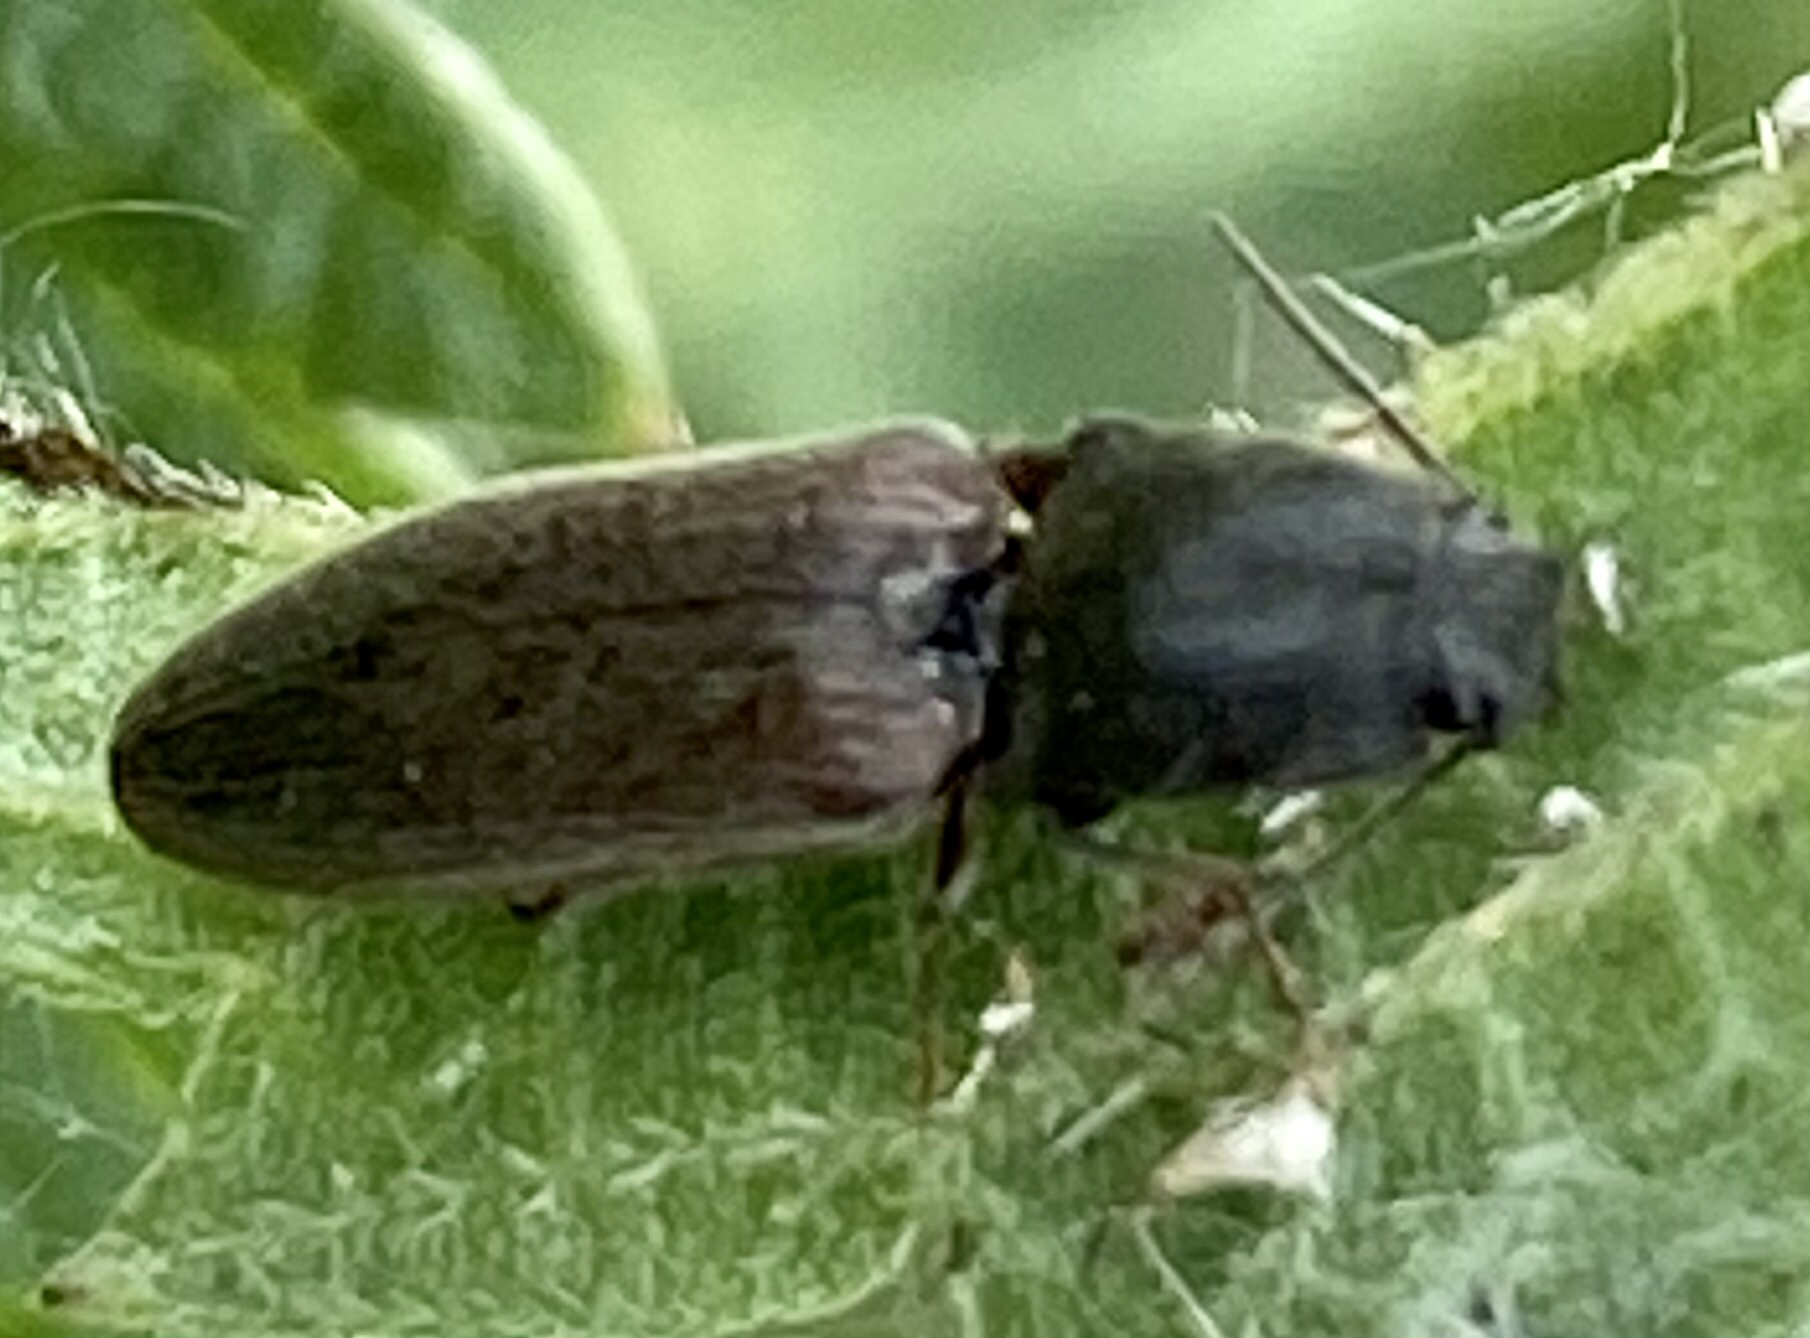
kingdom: Animalia
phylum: Arthropoda
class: Insecta
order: Coleoptera
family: Elateridae
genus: Athous
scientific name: Athous haemorrhoidalis
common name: Red-brown click beetle
